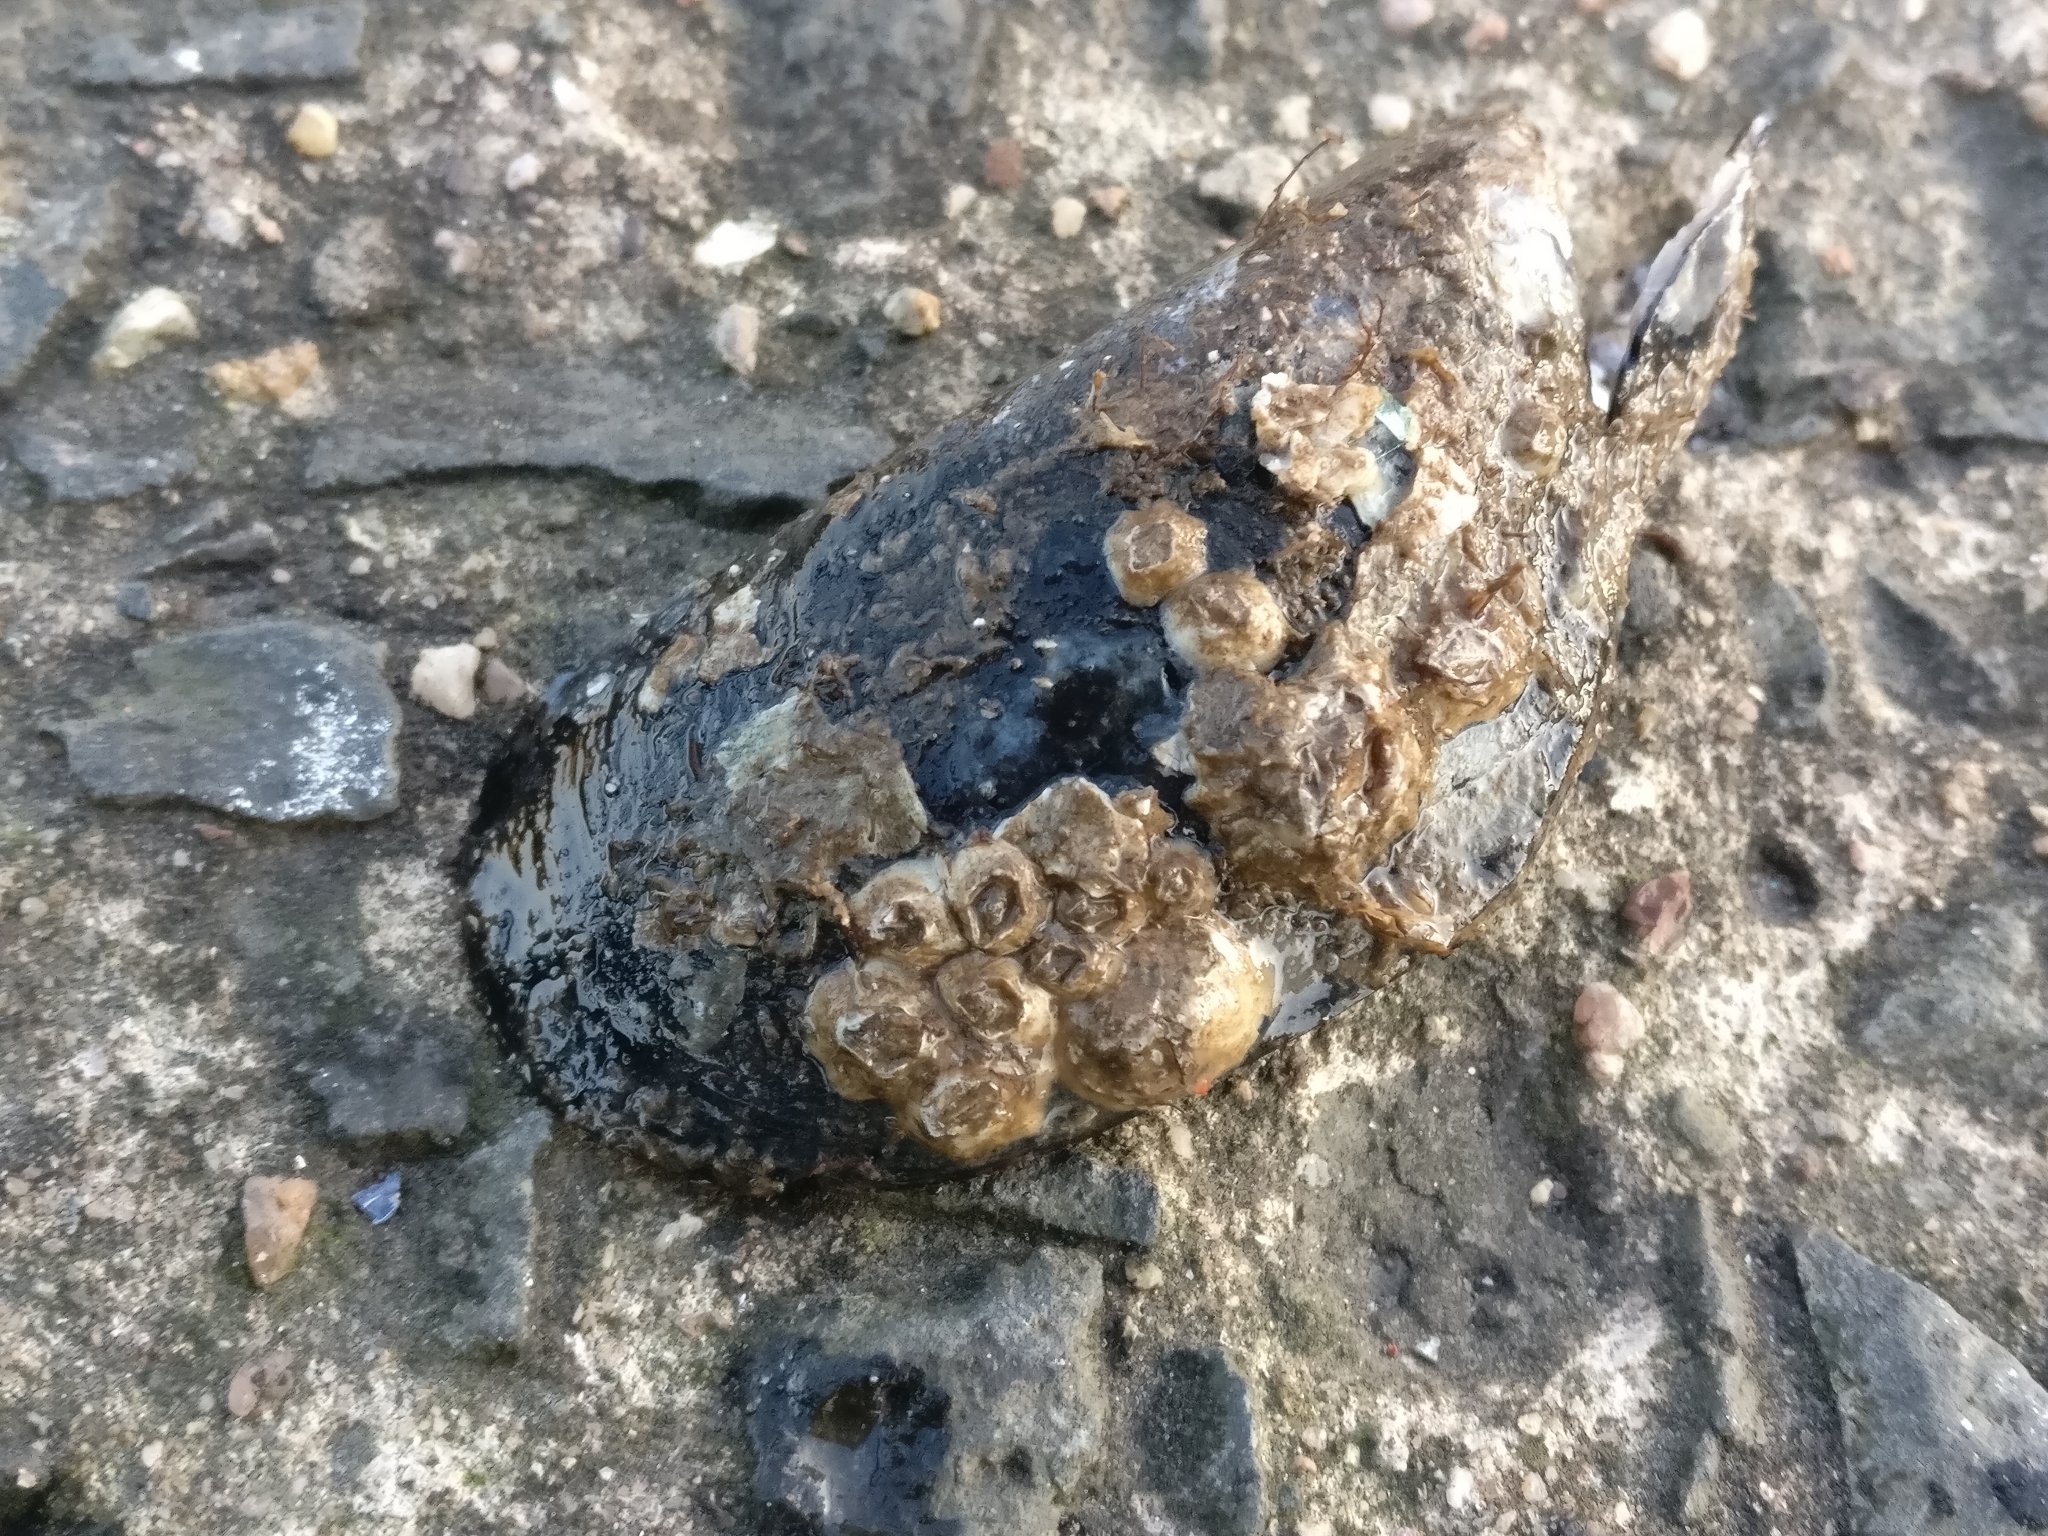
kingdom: Animalia
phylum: Mollusca
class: Bivalvia
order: Mytilida
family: Mytilidae
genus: Mytilus
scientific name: Mytilus edulis
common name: Blue mussel
